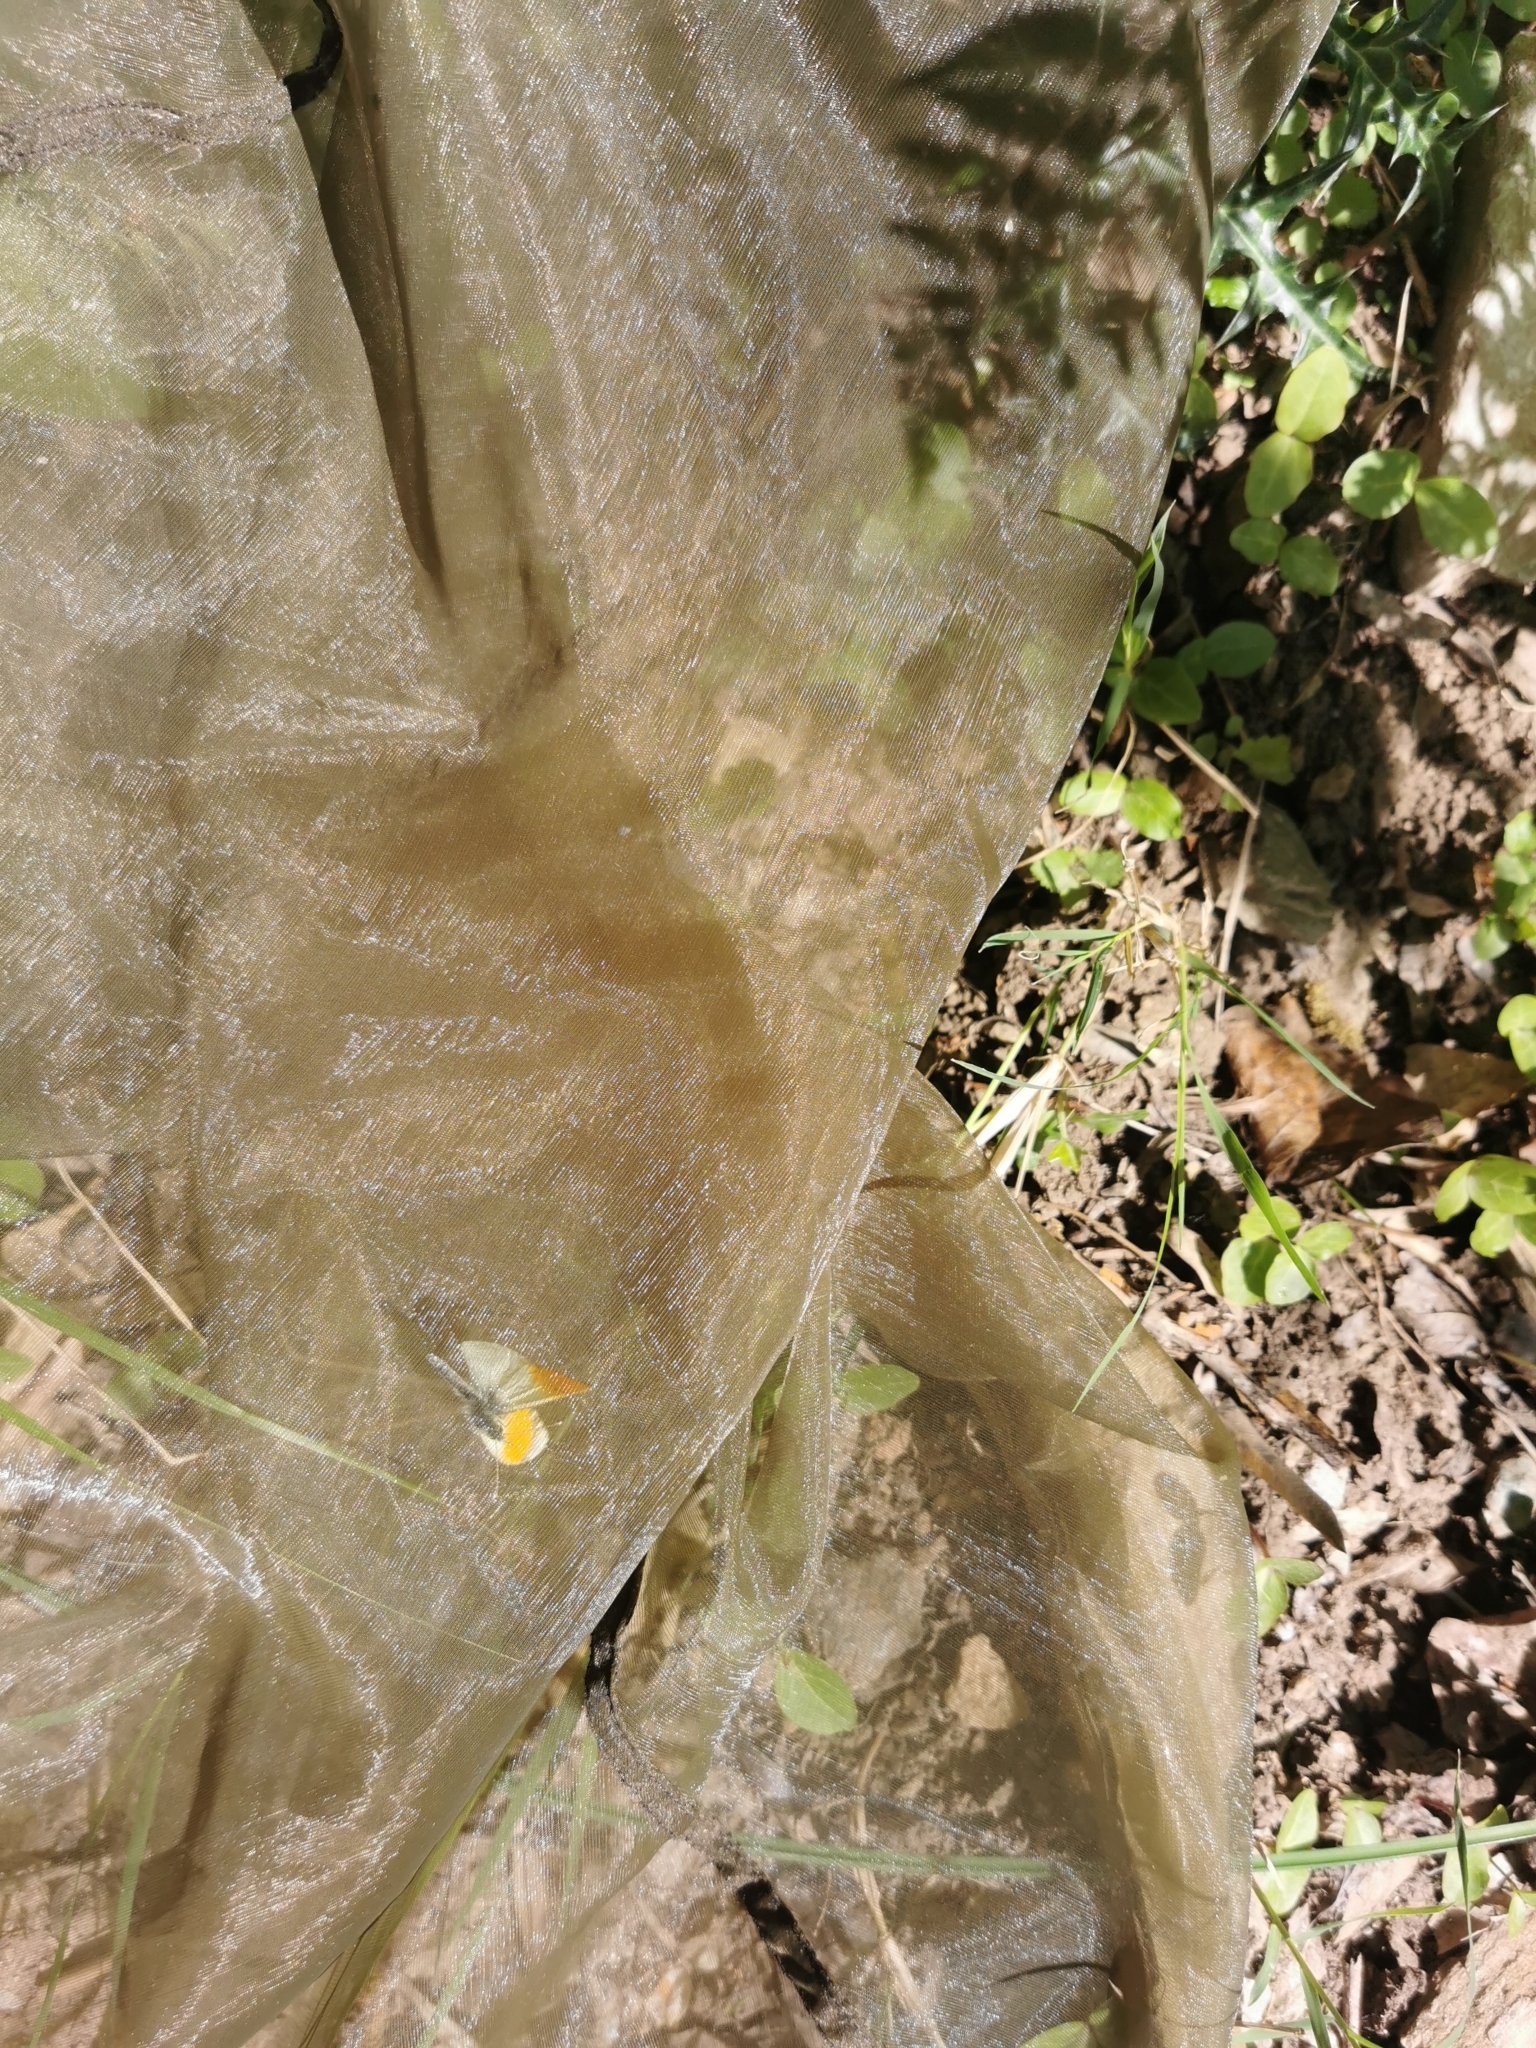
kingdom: Animalia
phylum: Arthropoda
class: Insecta
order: Lepidoptera
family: Pieridae
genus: Anthocharis
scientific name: Anthocharis cardamines
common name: Orange-tip
